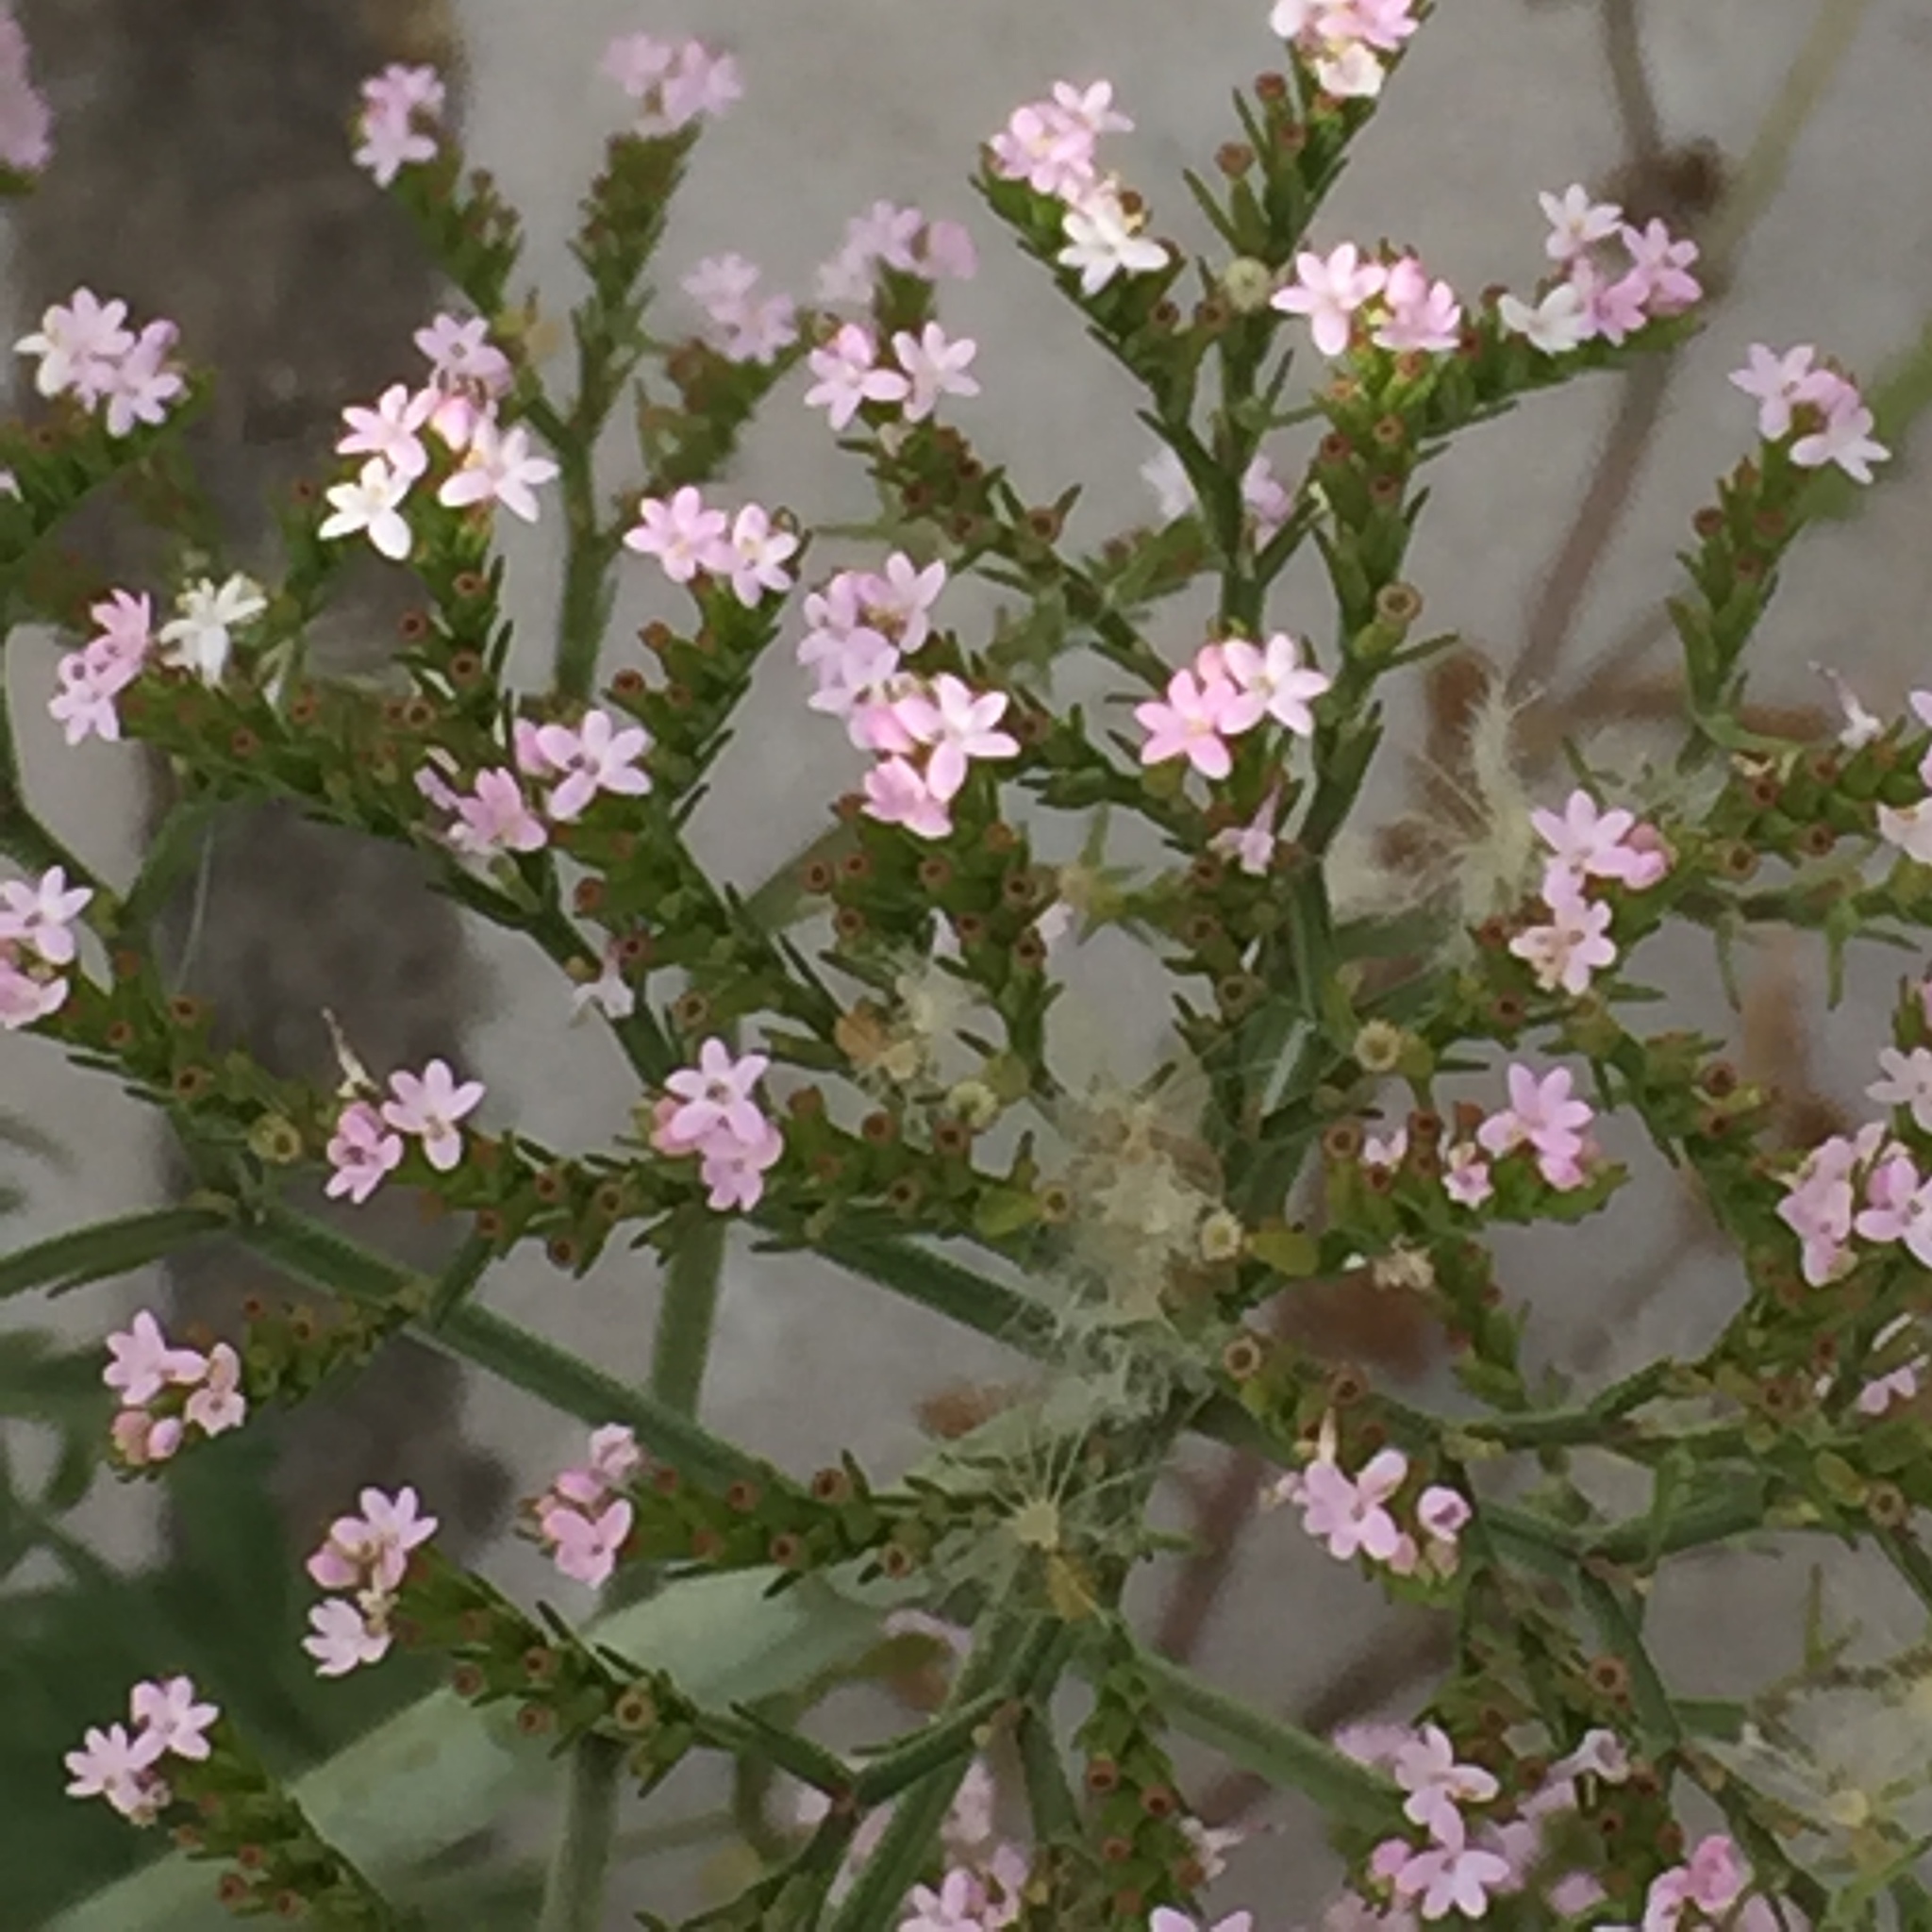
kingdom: Plantae
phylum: Tracheophyta
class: Magnoliopsida
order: Dipsacales
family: Caprifoliaceae
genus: Centranthus
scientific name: Centranthus calcitrapae
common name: Annual valerian
